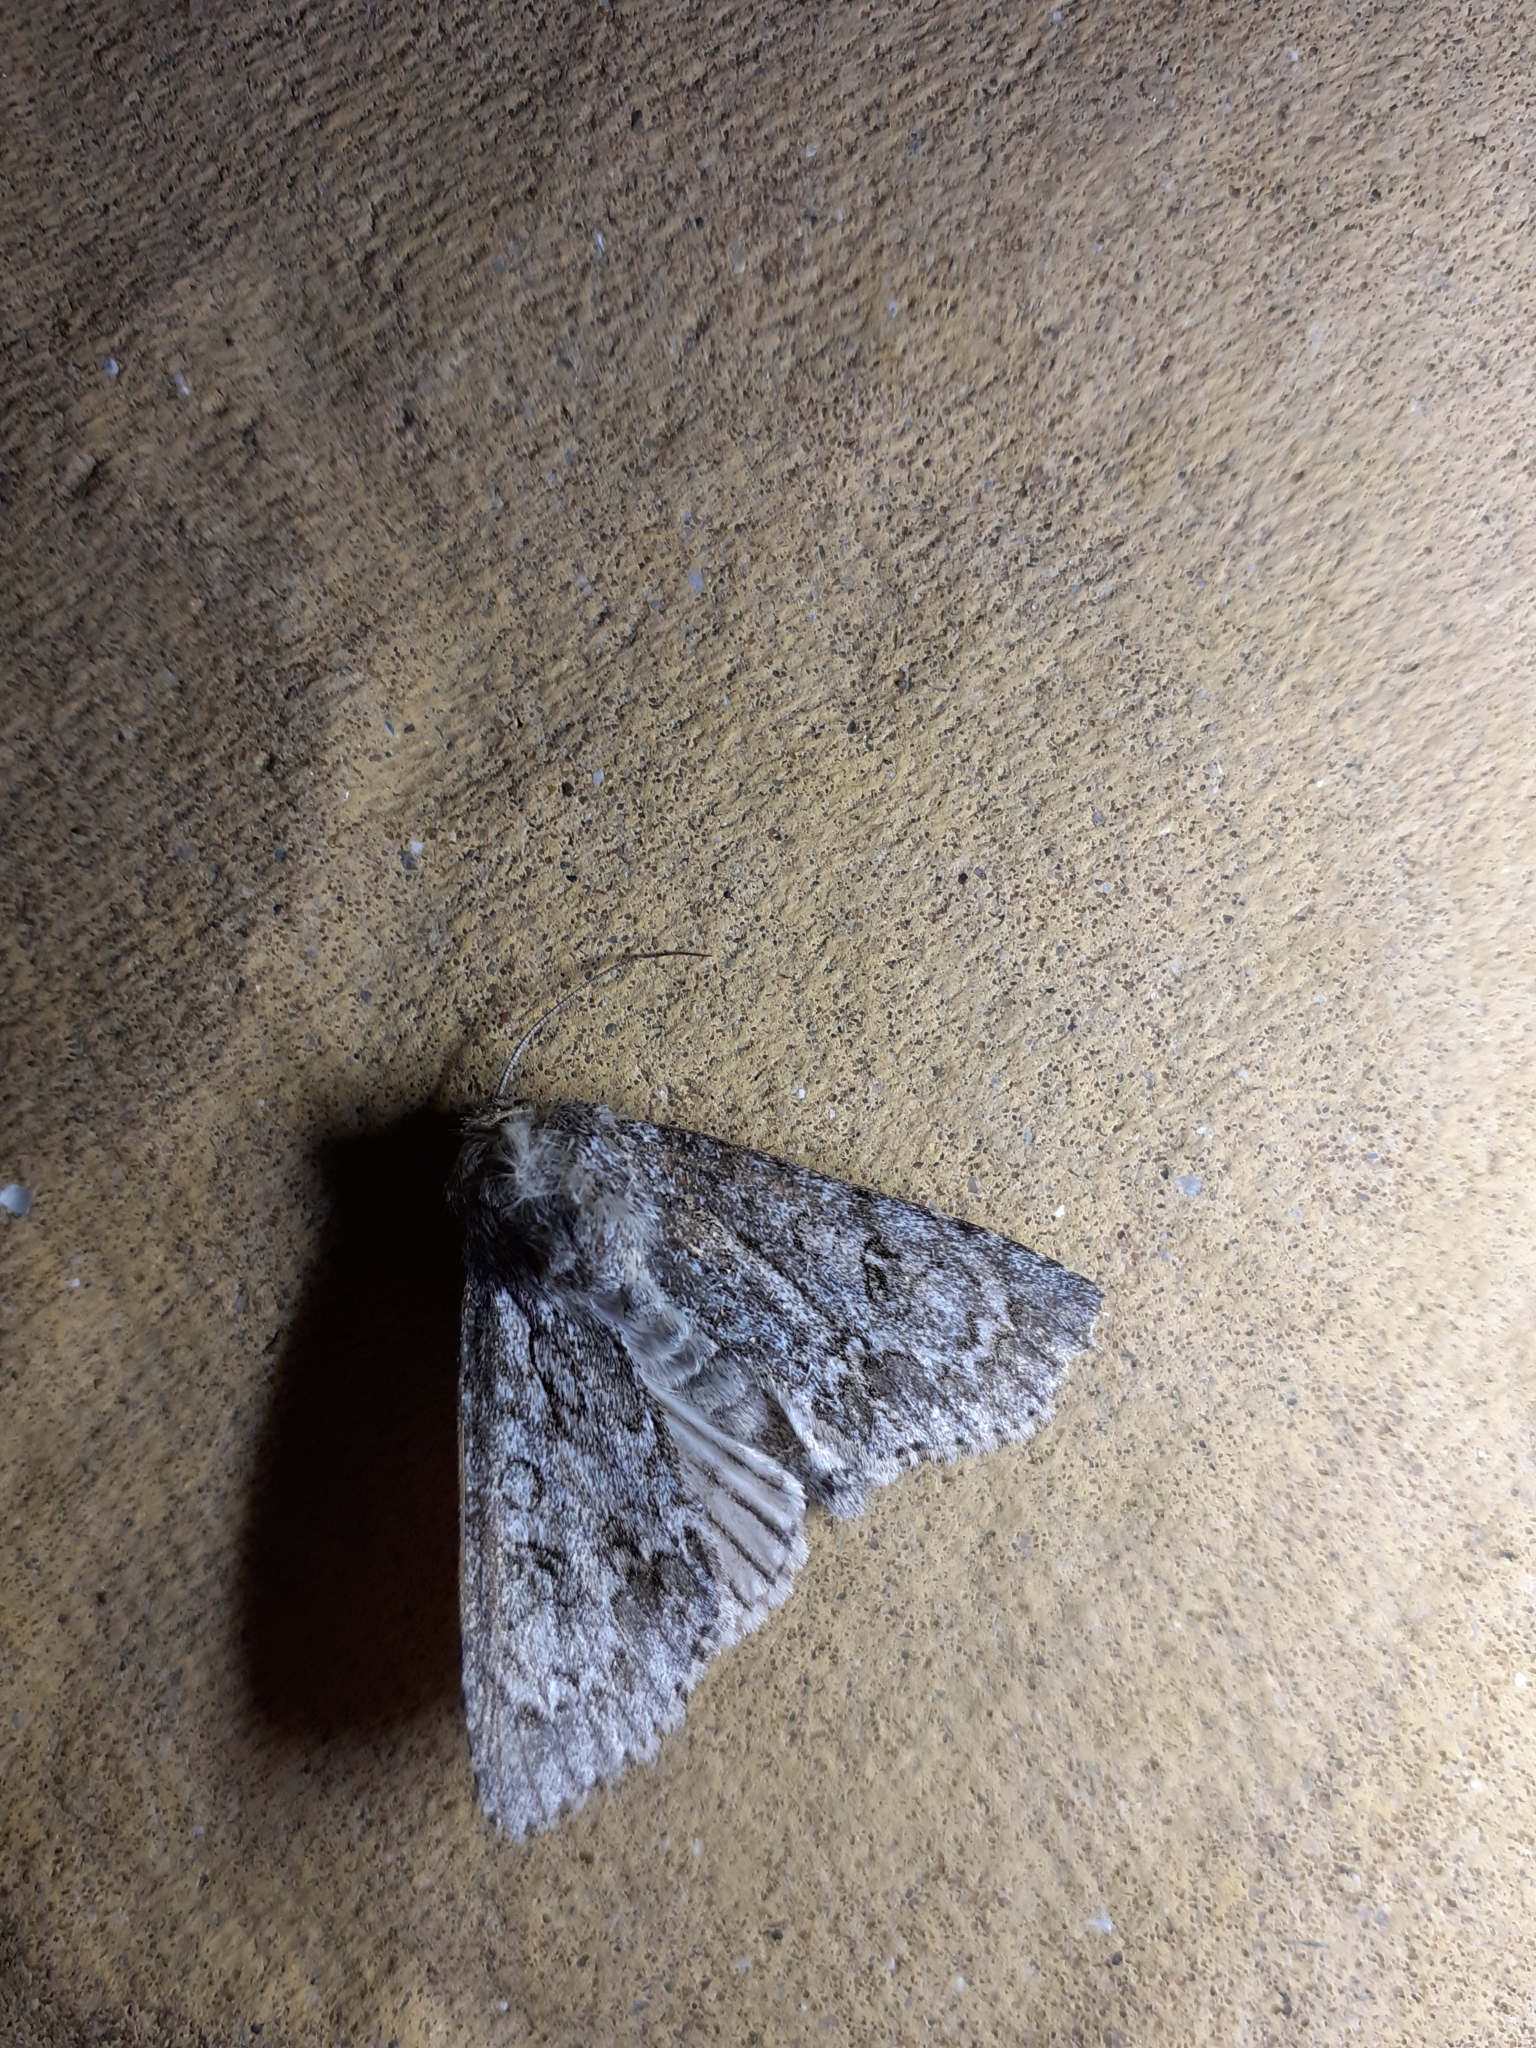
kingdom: Animalia
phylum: Arthropoda
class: Insecta
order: Lepidoptera
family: Noctuidae
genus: Acronicta
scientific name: Acronicta aceris
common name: Sycamore
